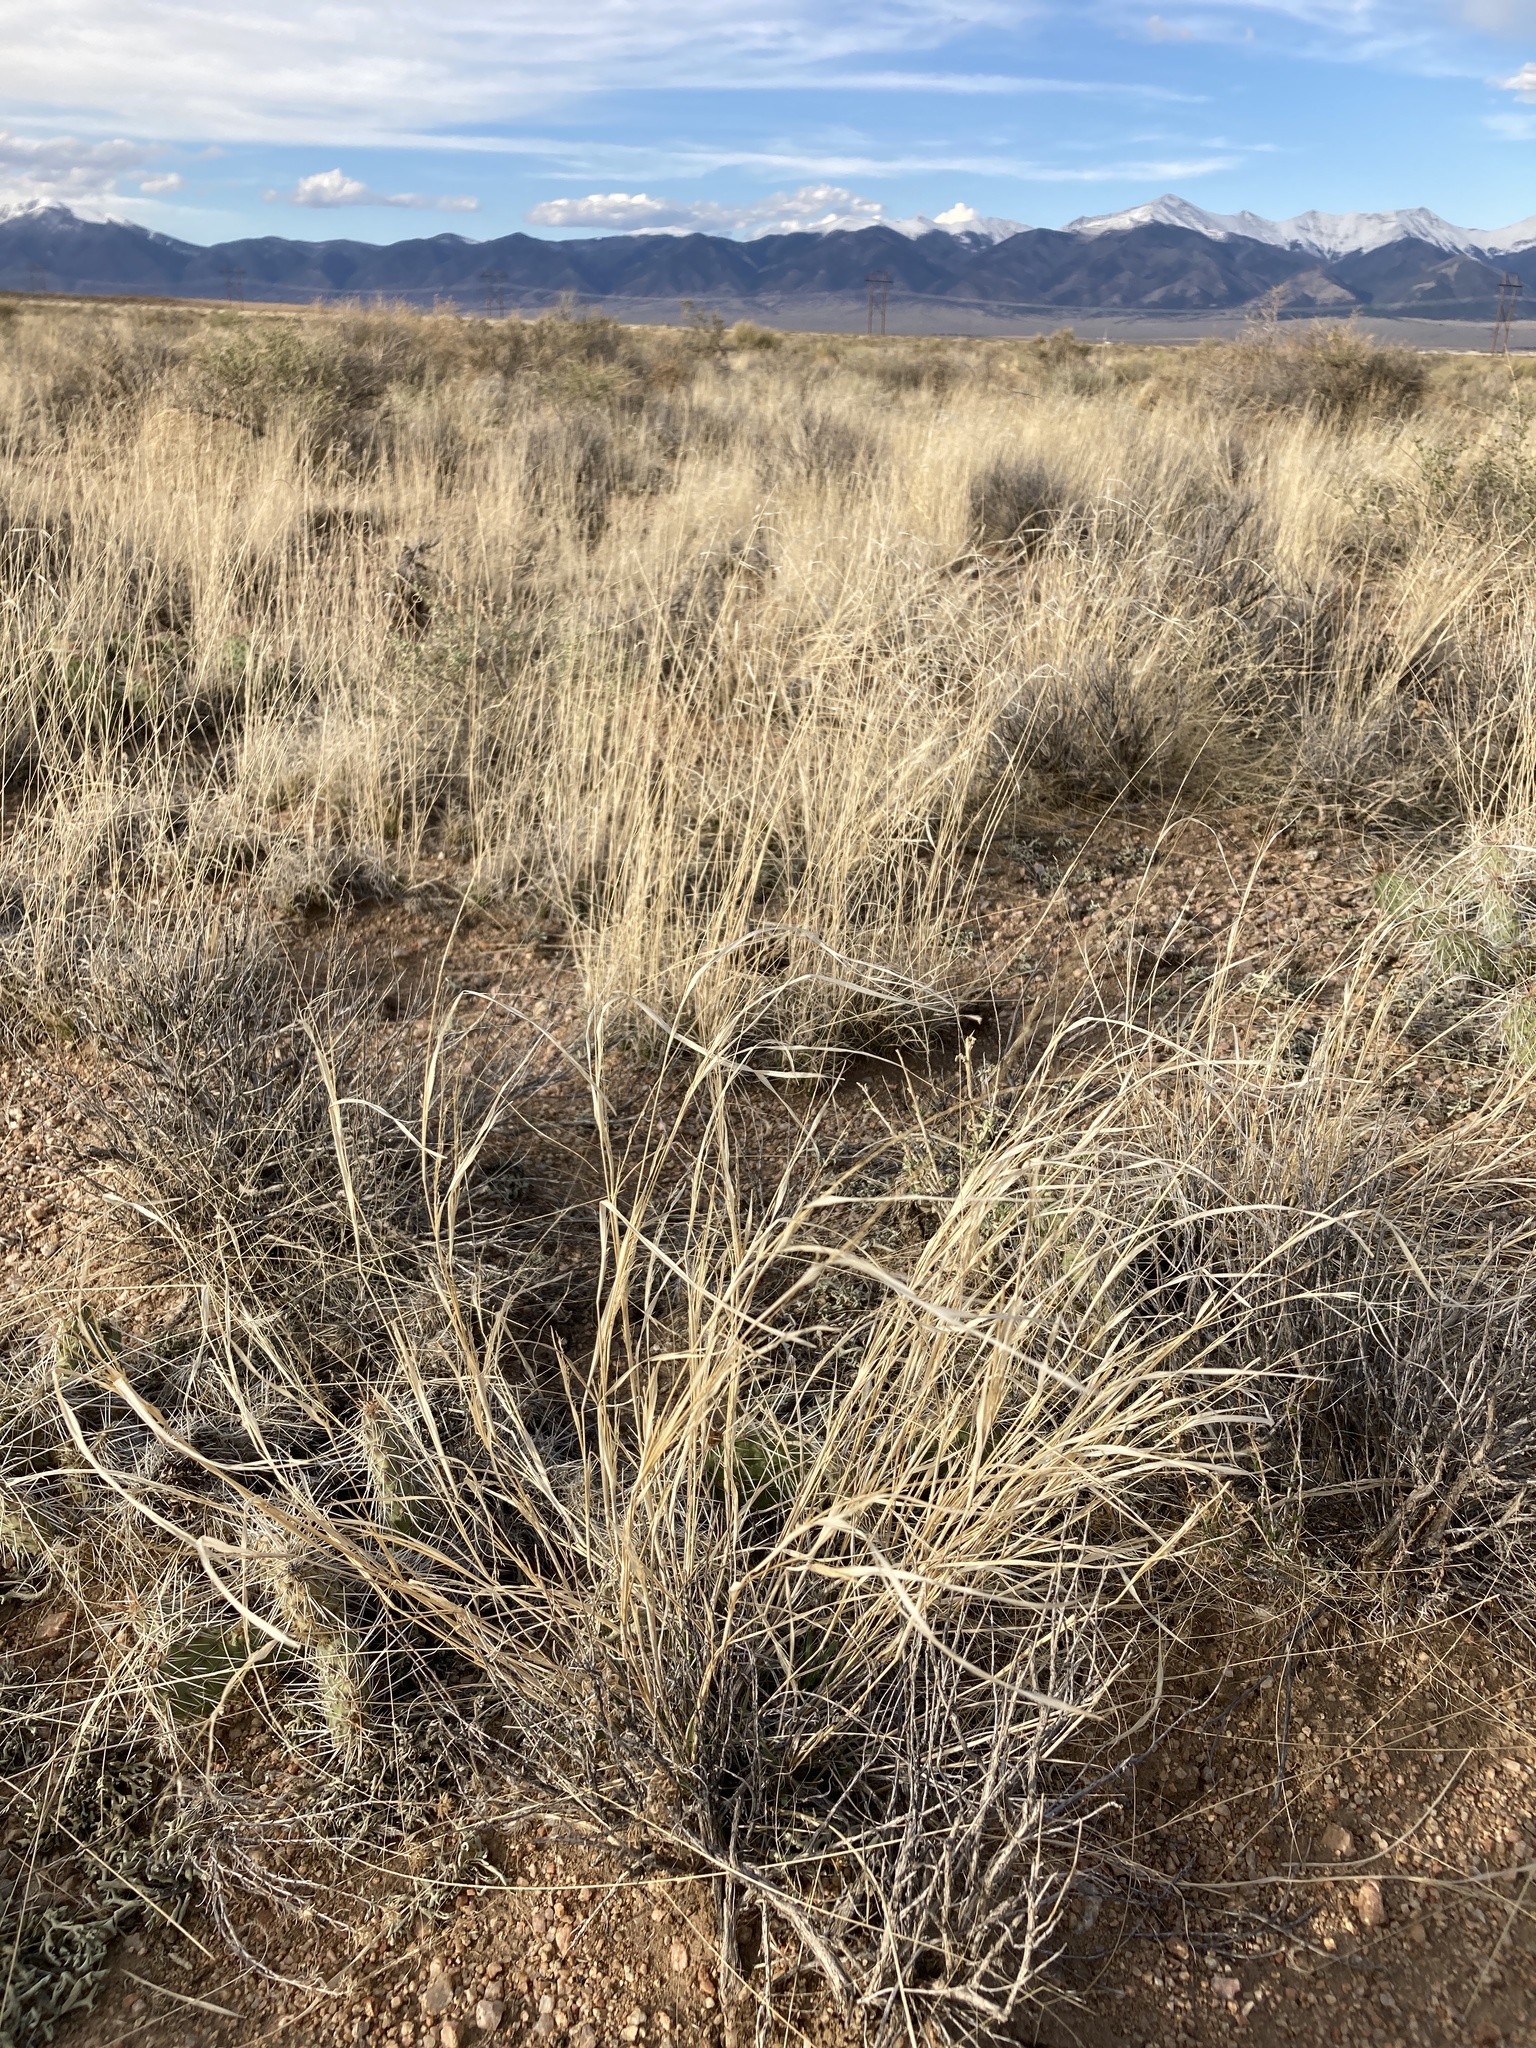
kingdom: Plantae
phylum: Tracheophyta
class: Liliopsida
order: Poales
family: Poaceae
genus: Sporobolus
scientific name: Sporobolus cryptandrus
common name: Sand dropseed
